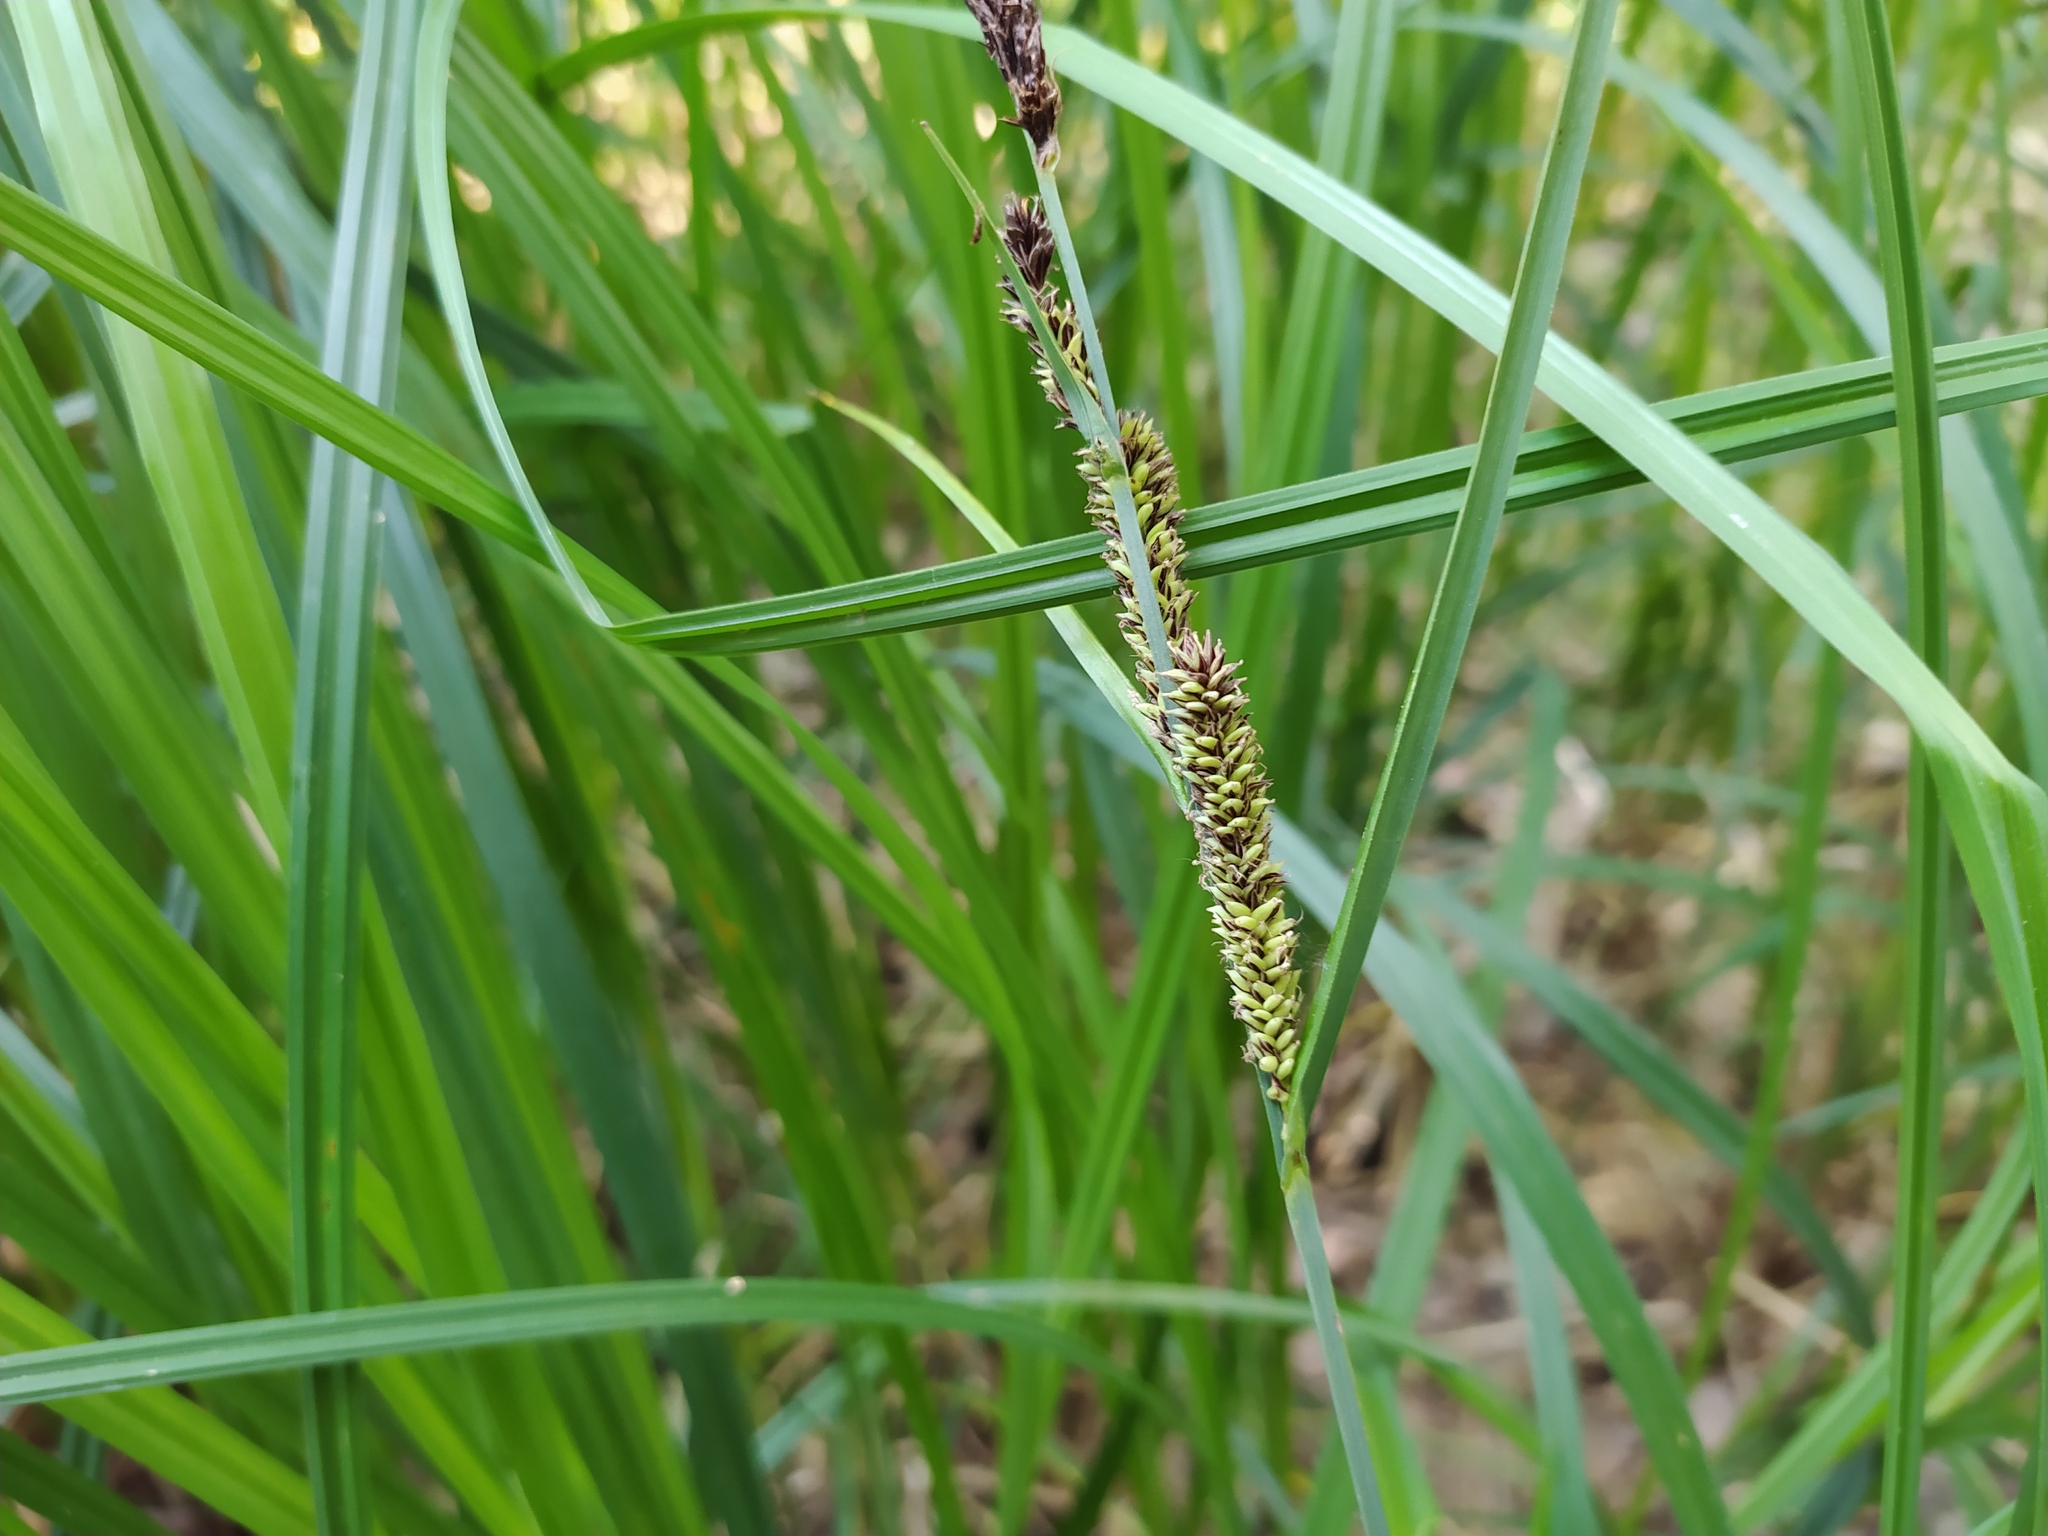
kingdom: Plantae
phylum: Tracheophyta
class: Liliopsida
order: Poales
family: Cyperaceae
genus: Carex
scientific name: Carex acutiformis
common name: Lesser pond-sedge
